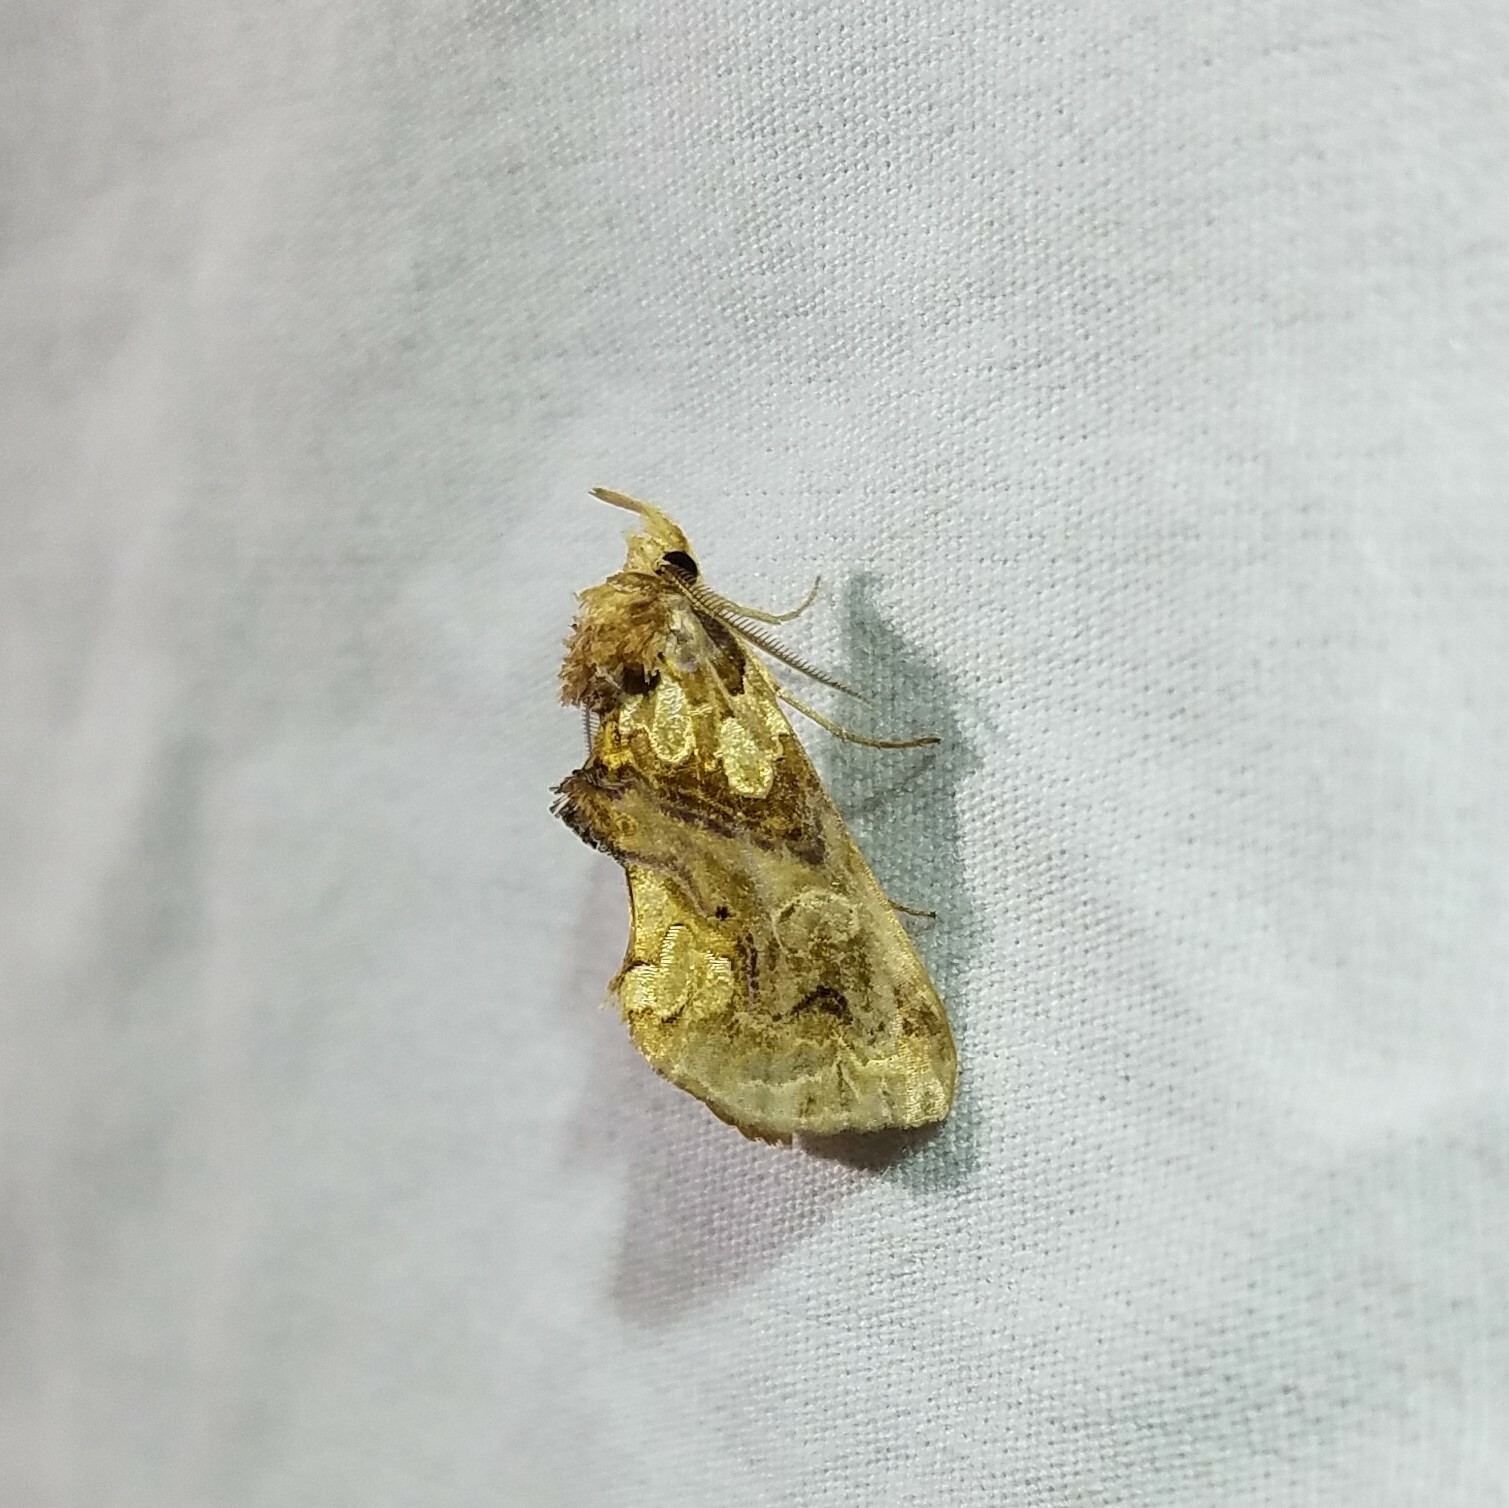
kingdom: Animalia
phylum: Arthropoda
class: Insecta
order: Lepidoptera
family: Erebidae
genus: Plusiodonta
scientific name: Plusiodonta compressipalpis
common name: Moonseed moth
